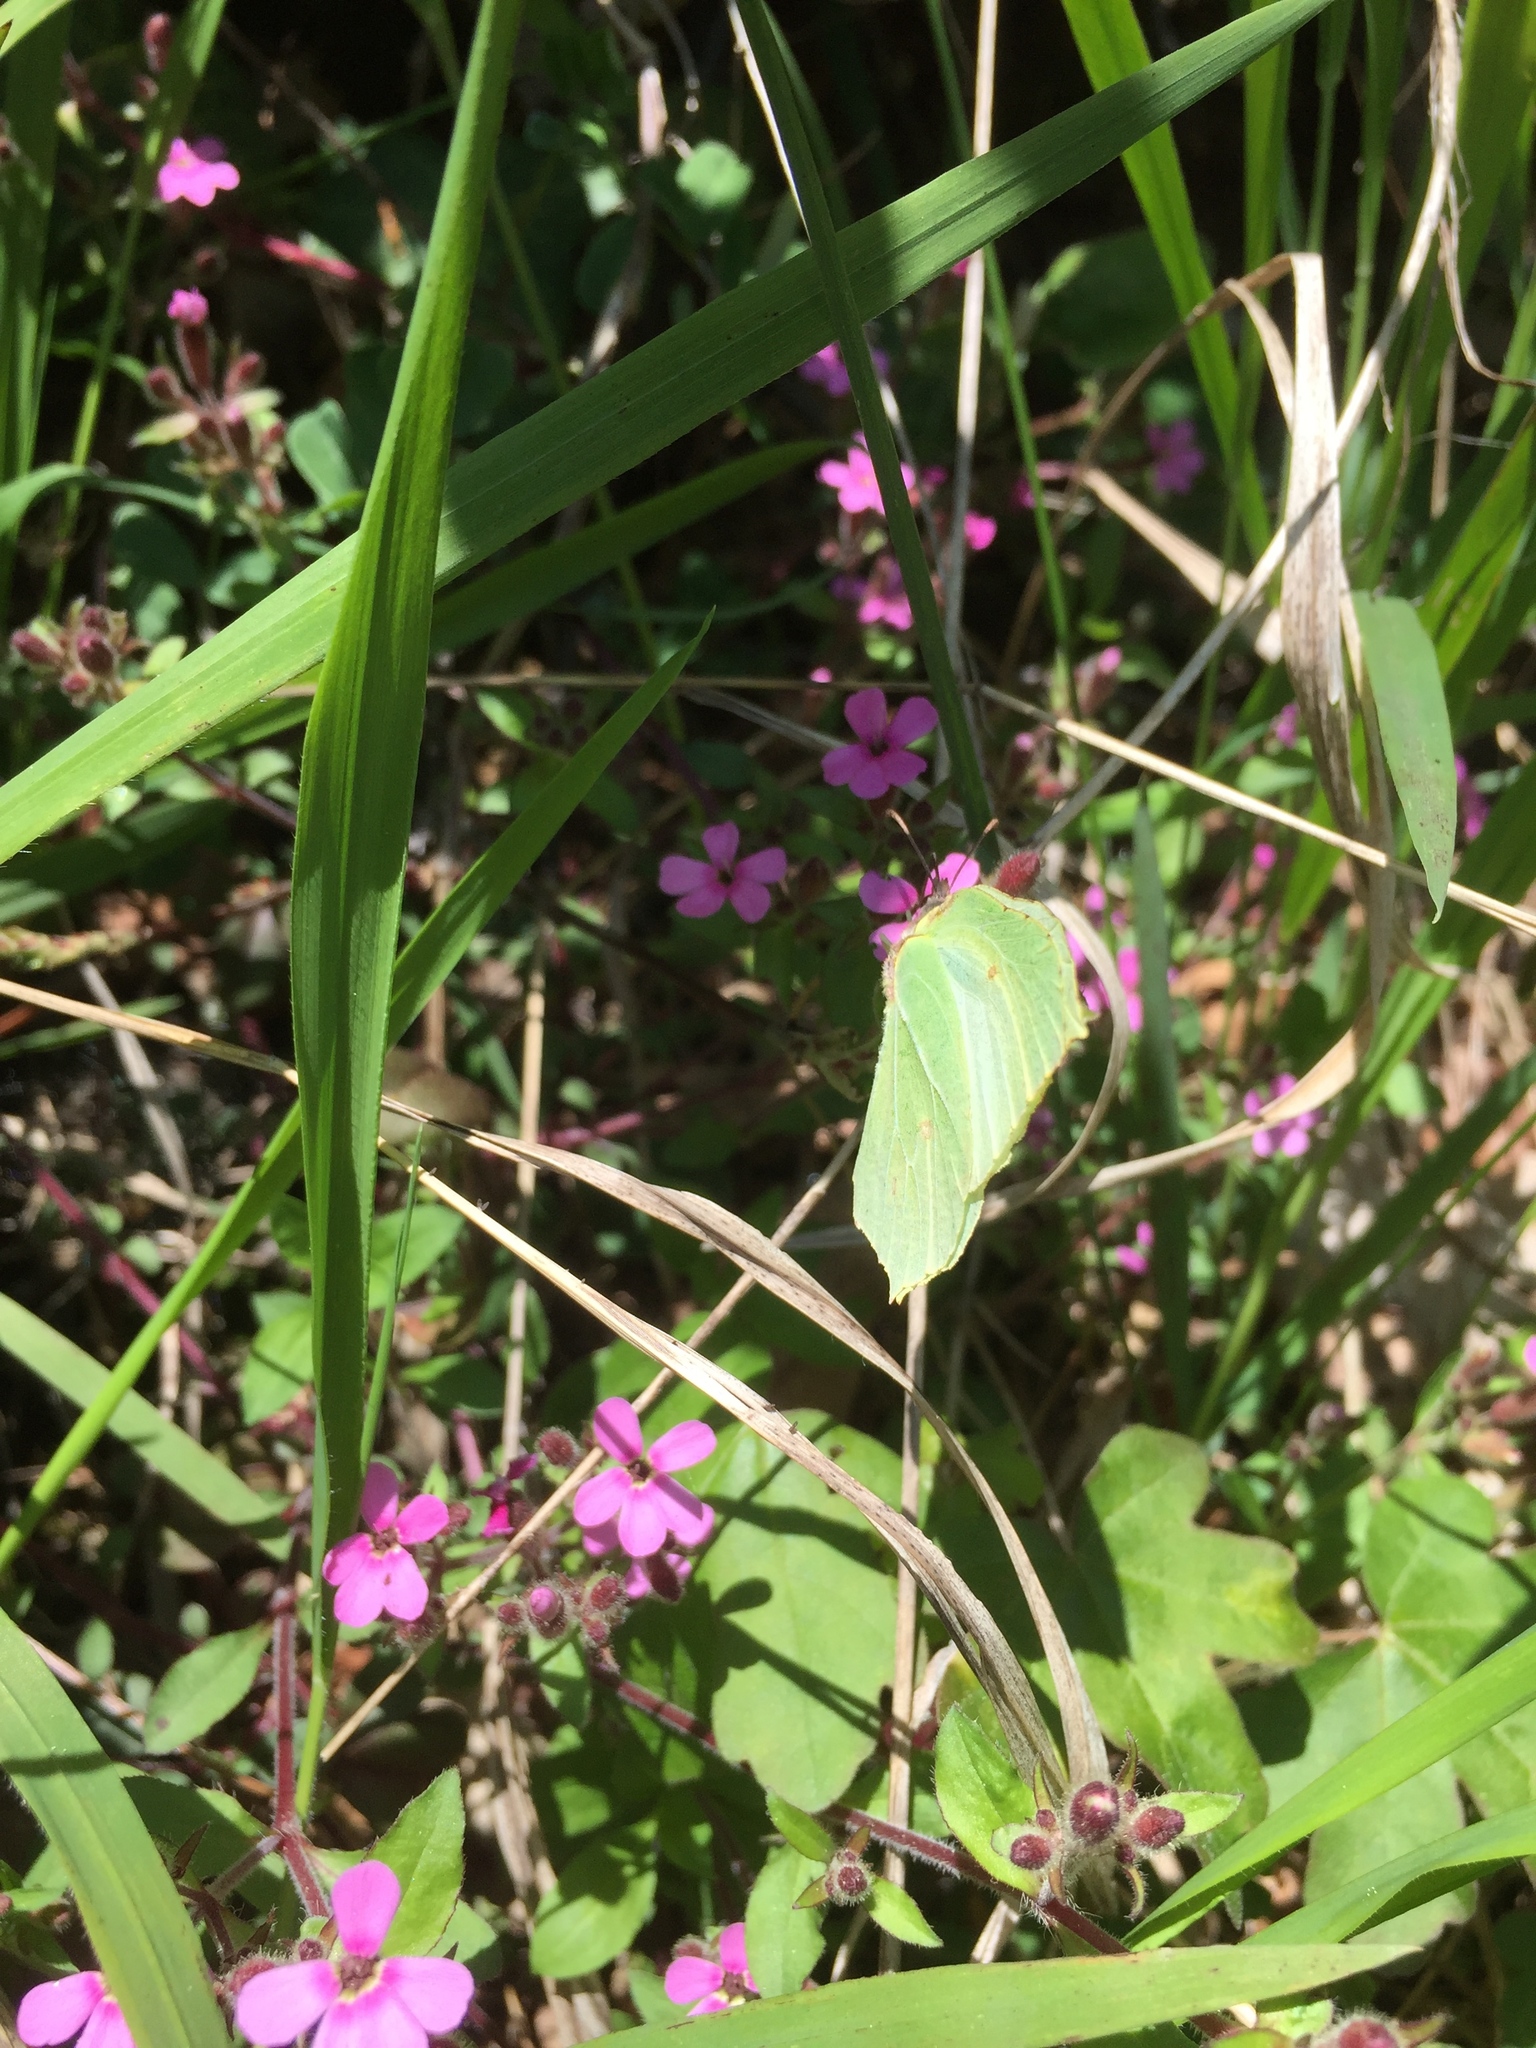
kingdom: Animalia
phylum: Arthropoda
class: Insecta
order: Lepidoptera
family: Pieridae
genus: Gonepteryx
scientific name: Gonepteryx rhamni
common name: Brimstone
